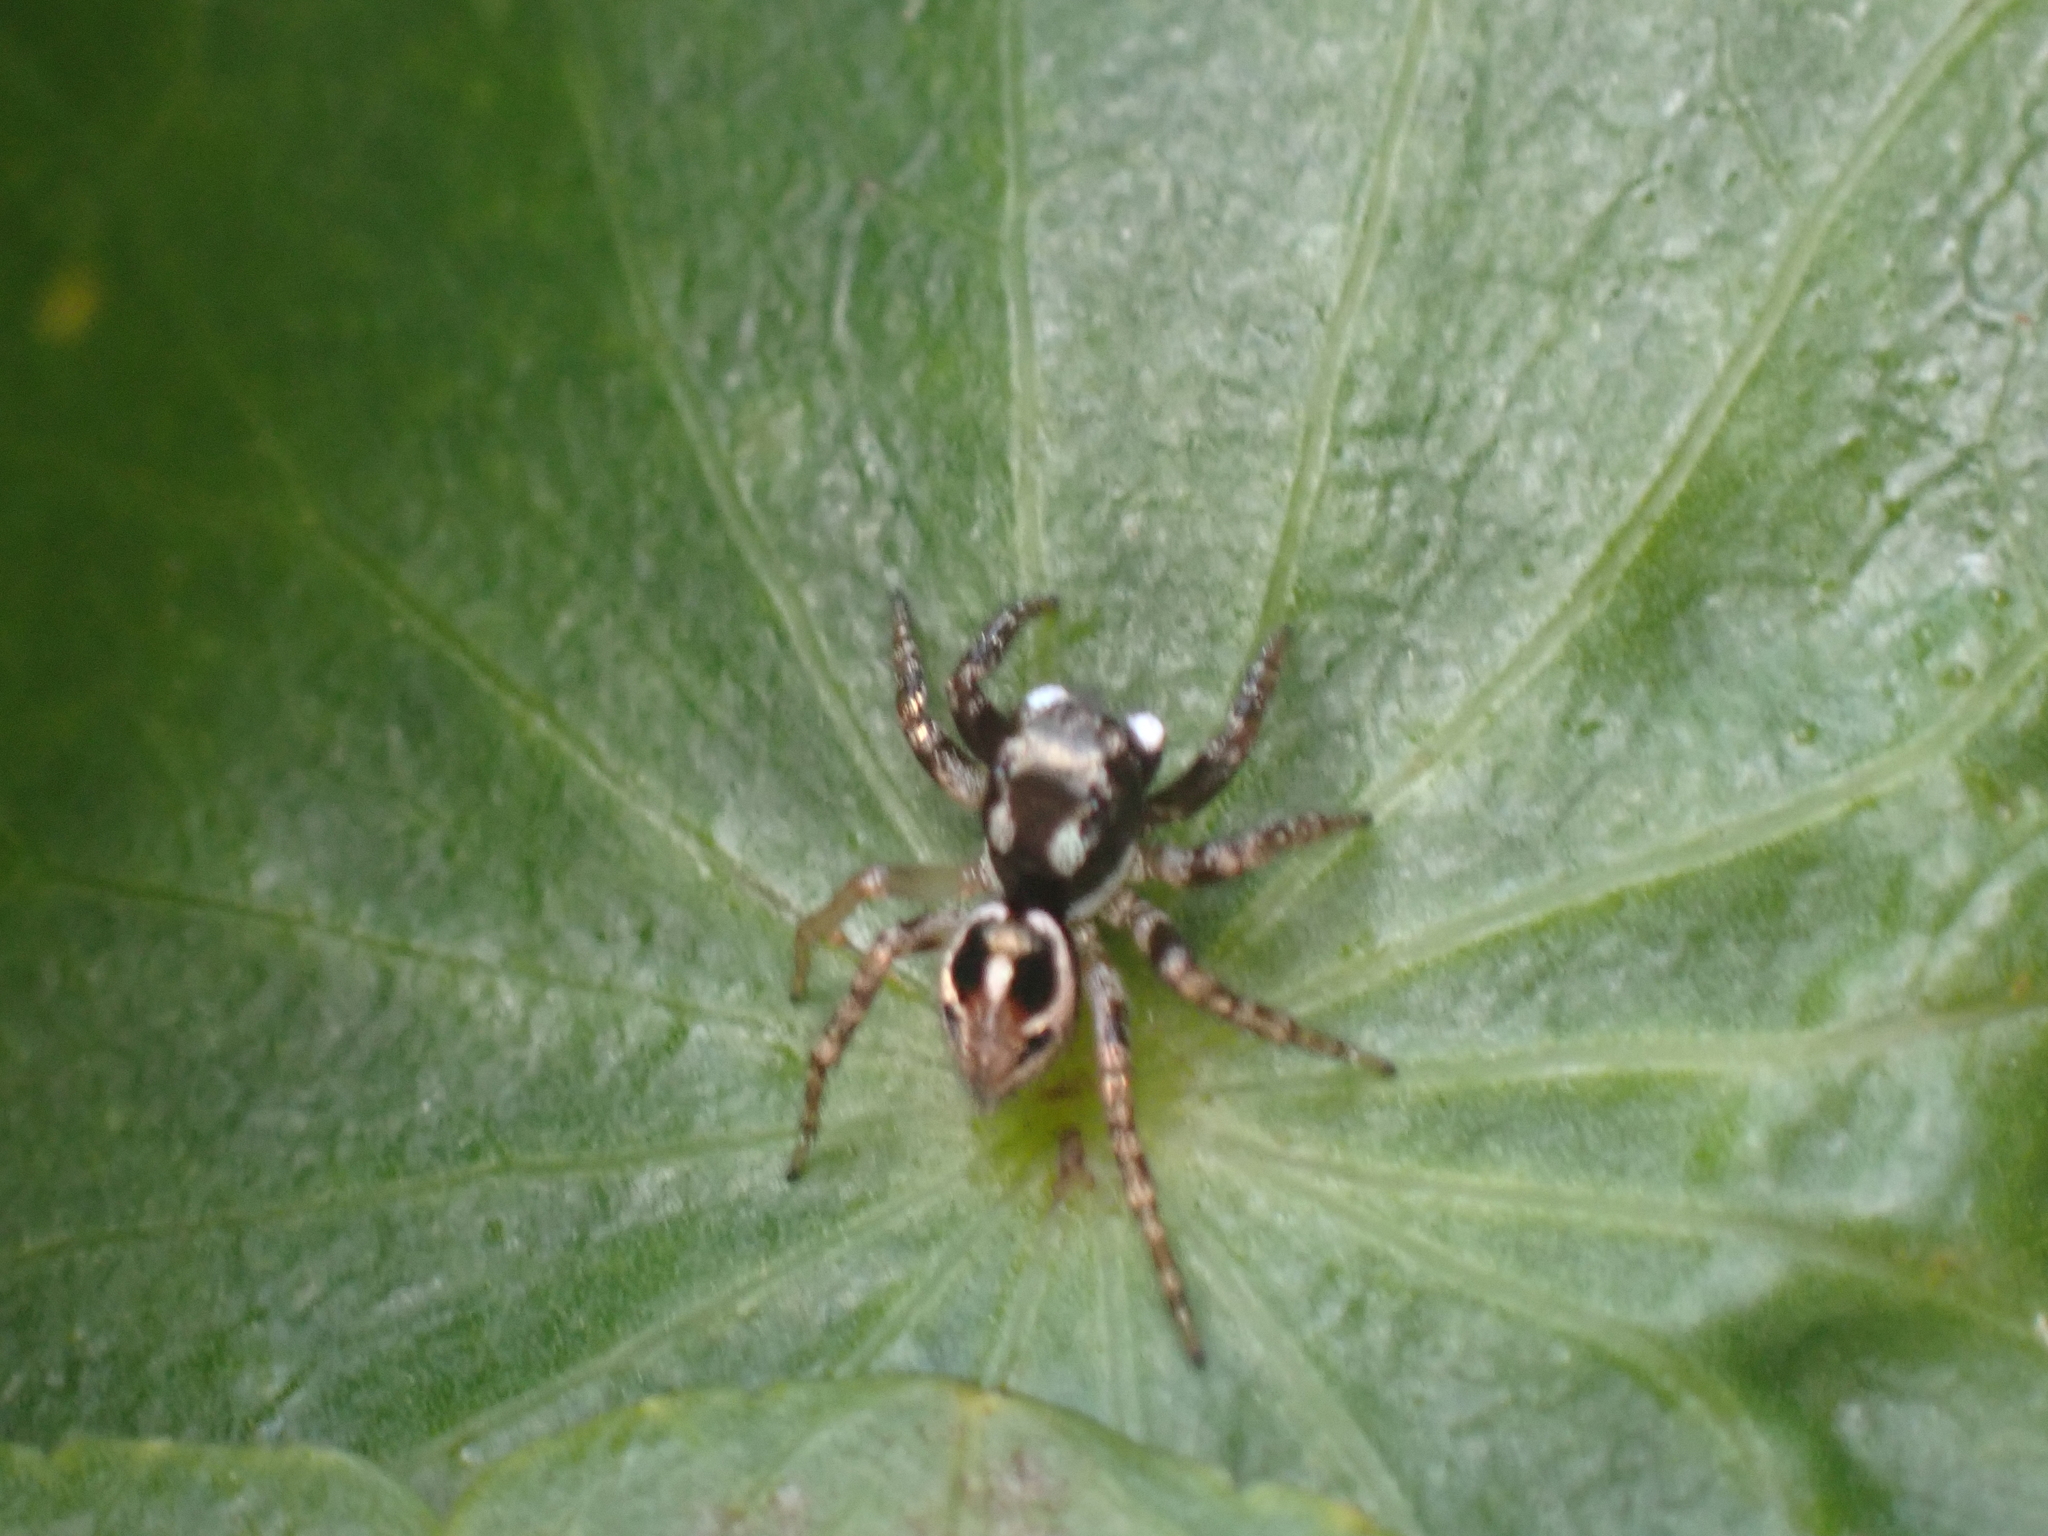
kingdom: Animalia
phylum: Arthropoda
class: Arachnida
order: Araneae
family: Salticidae
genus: Anasaitis
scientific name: Anasaitis canosa
